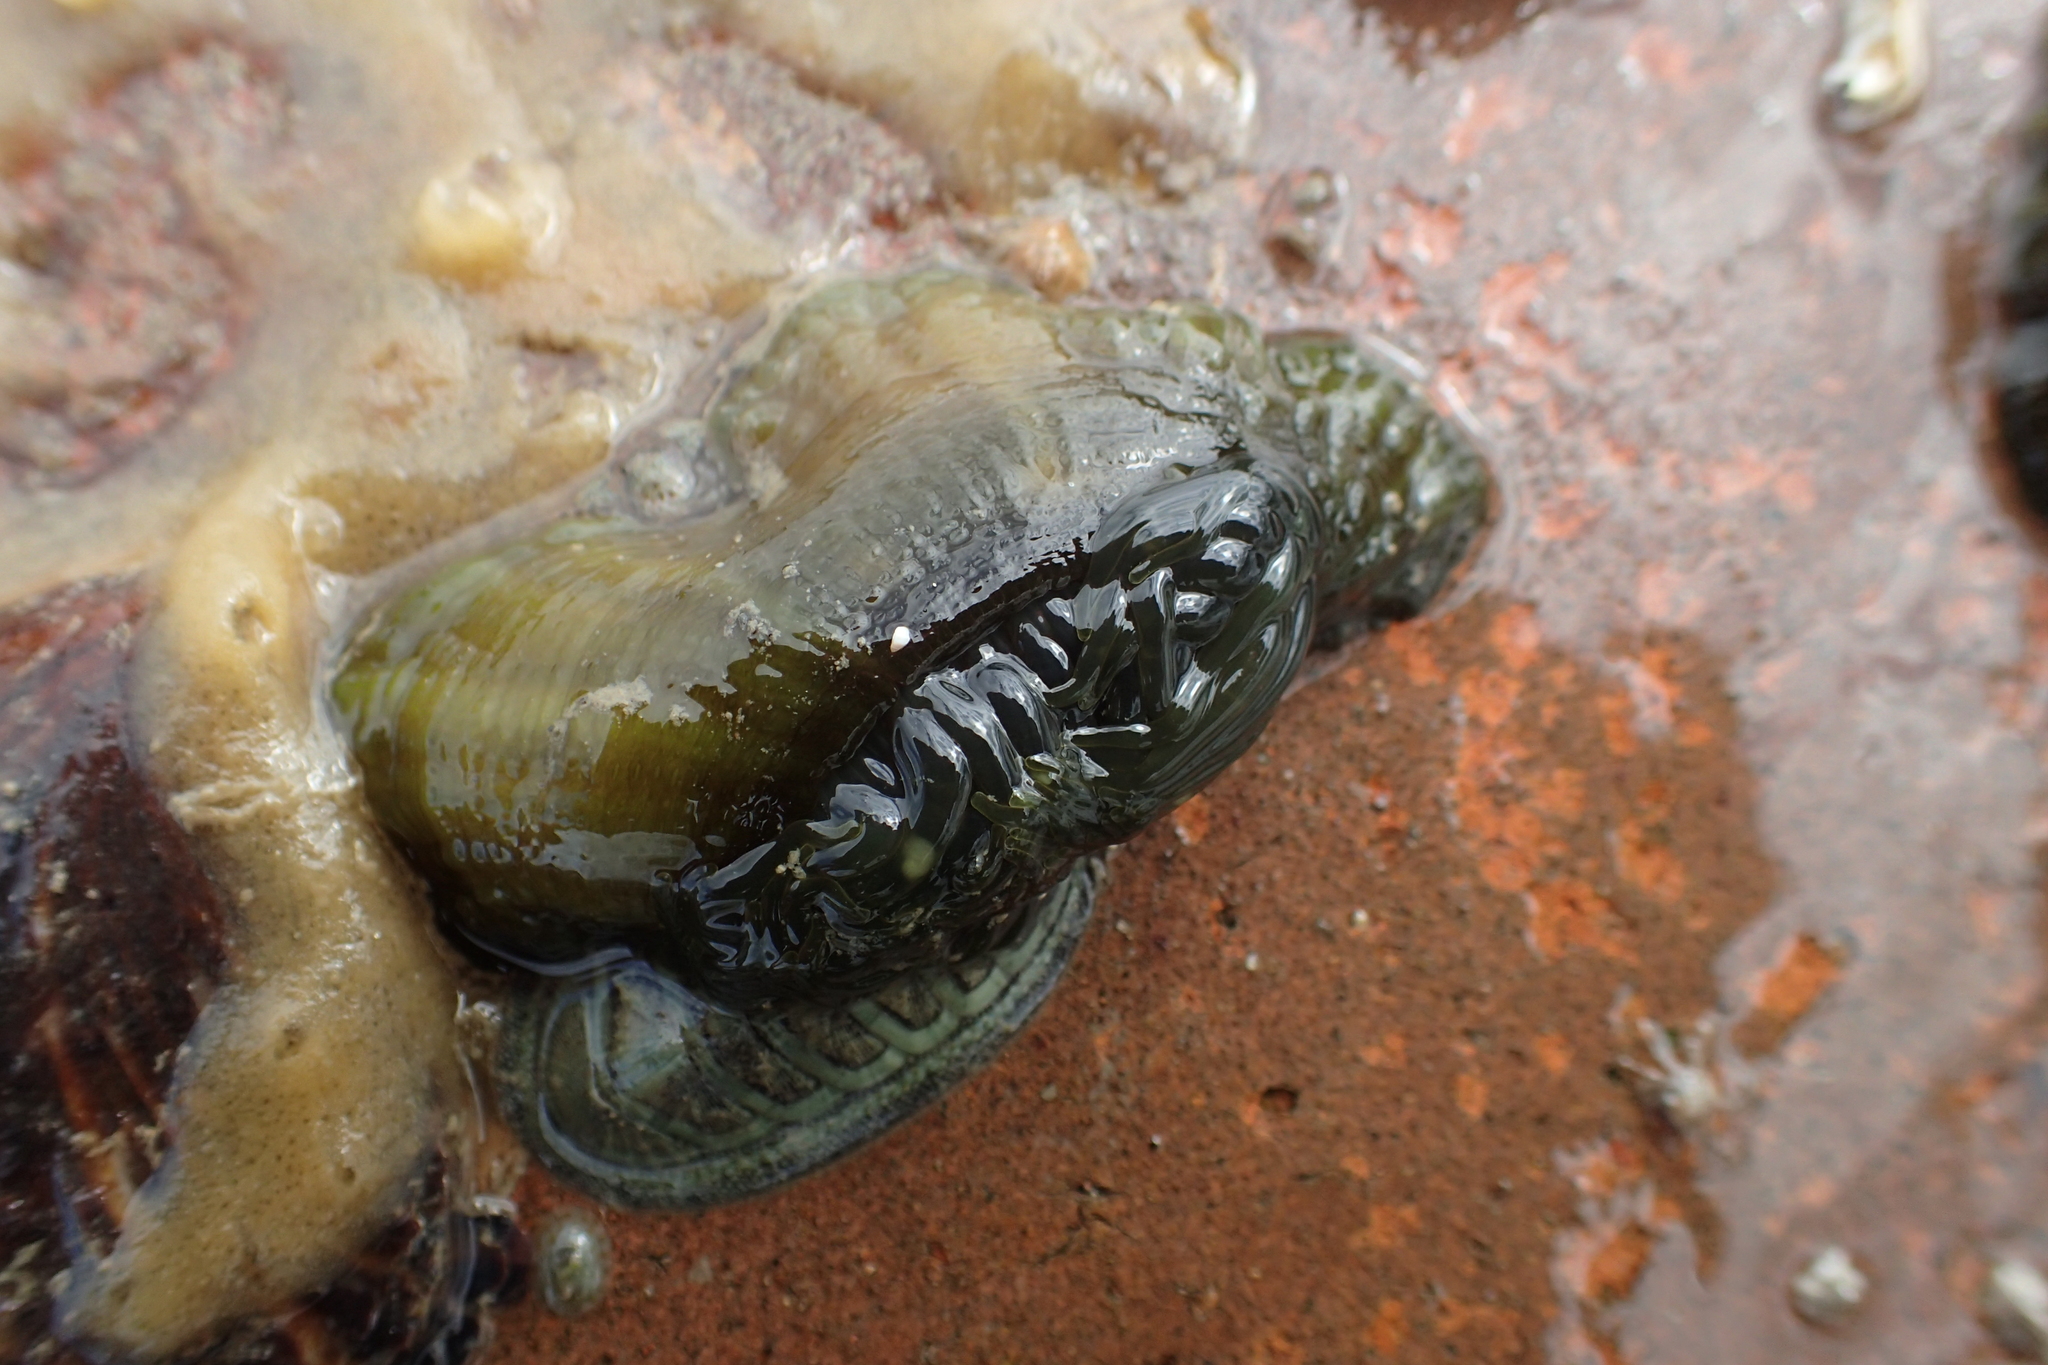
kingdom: Animalia
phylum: Cnidaria
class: Anthozoa
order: Actiniaria
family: Actiniidae
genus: Isactinia
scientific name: Isactinia olivacea
